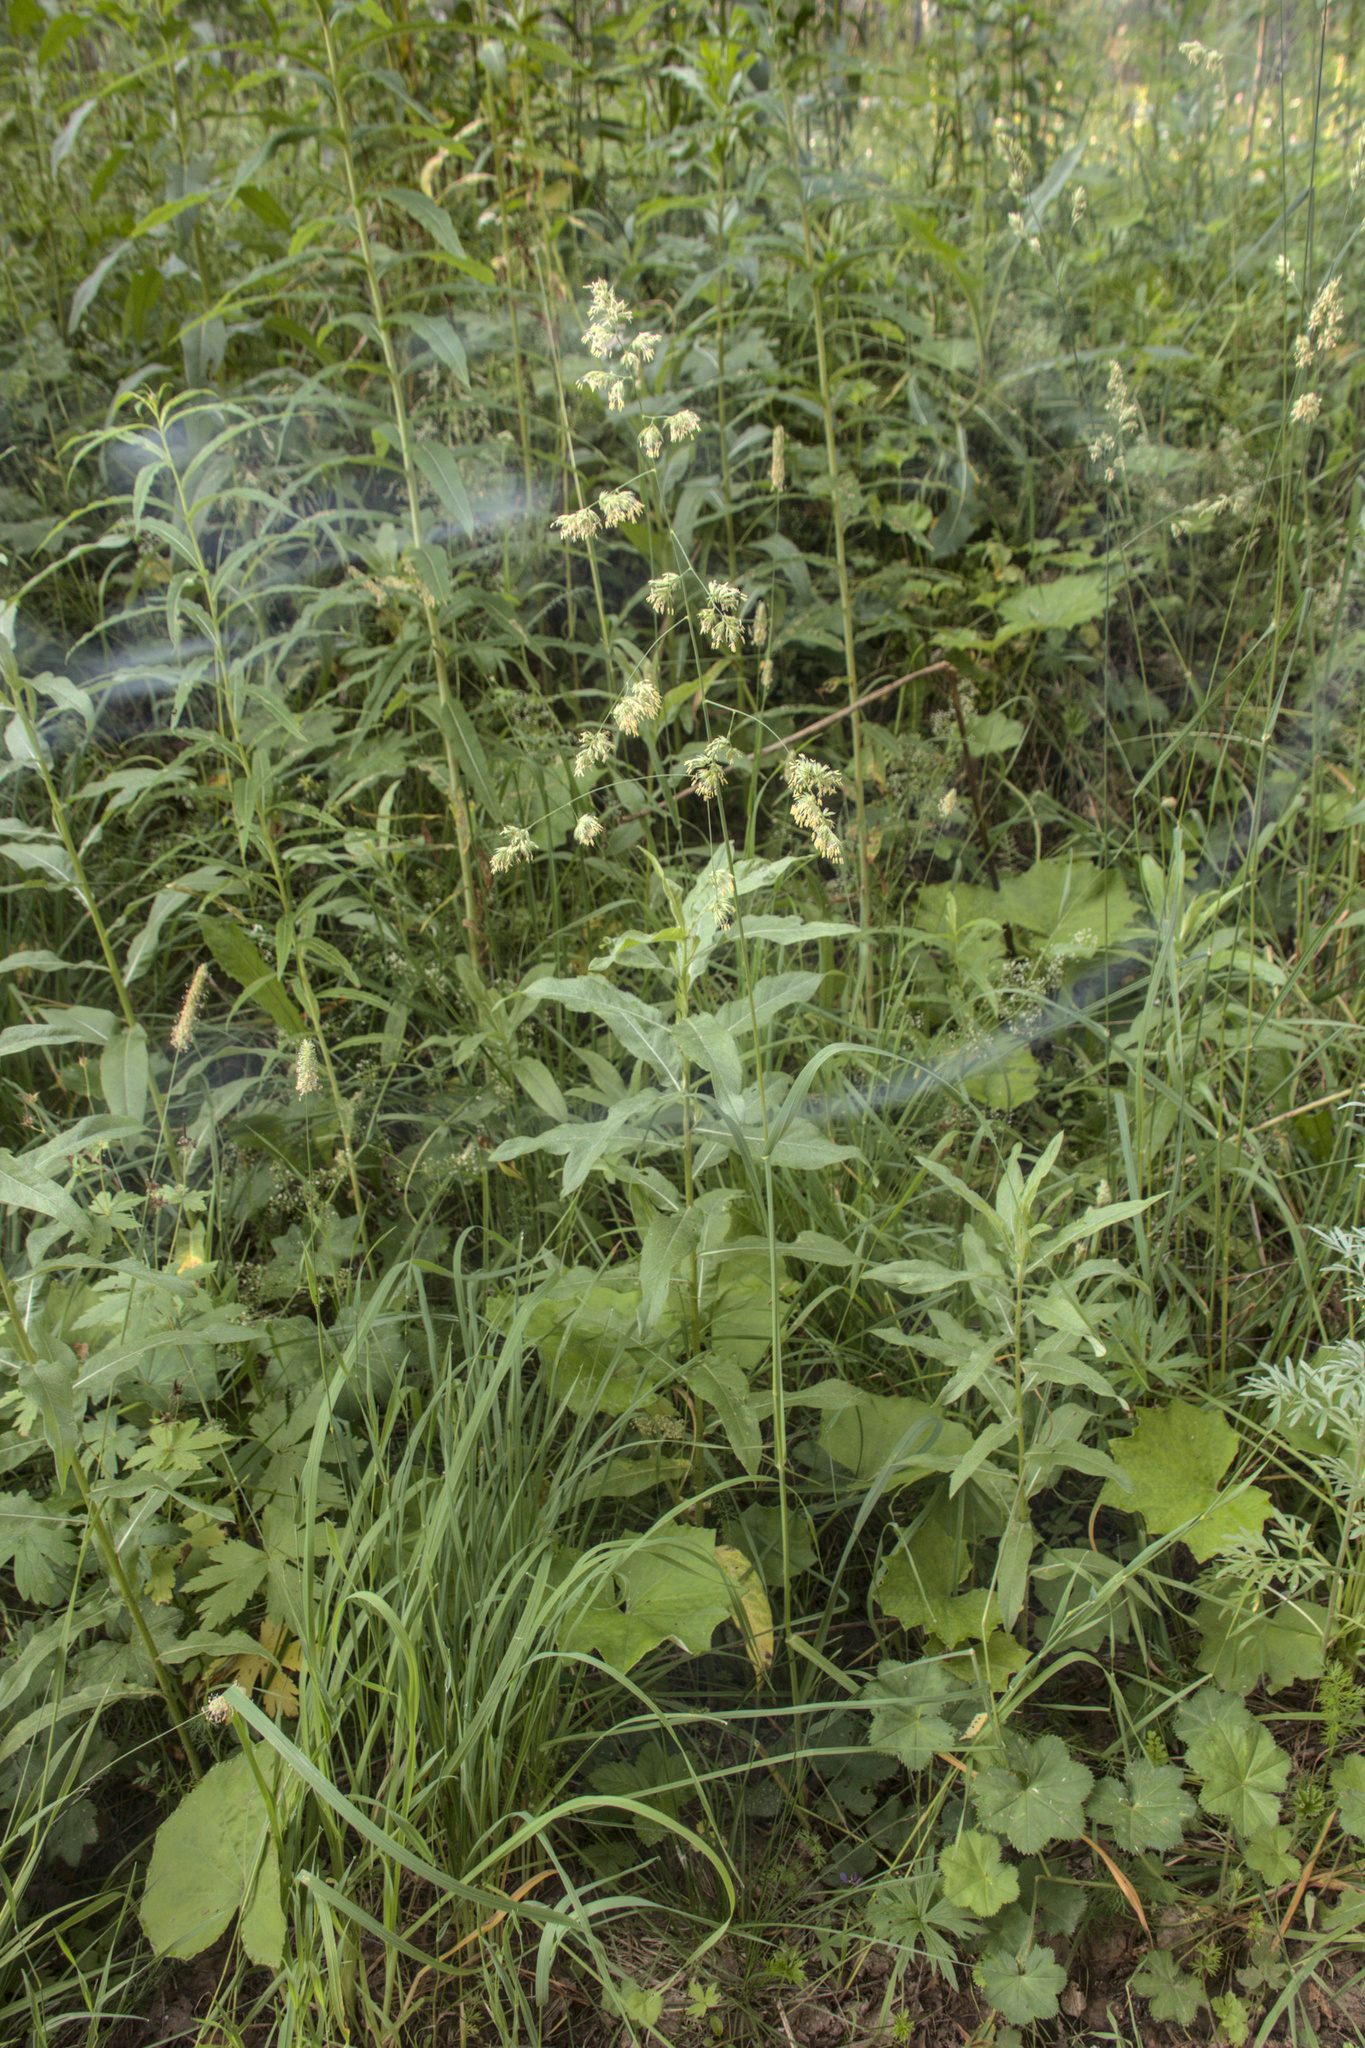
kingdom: Plantae
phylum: Tracheophyta
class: Liliopsida
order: Poales
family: Poaceae
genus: Dactylis
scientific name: Dactylis glomerata
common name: Orchardgrass
